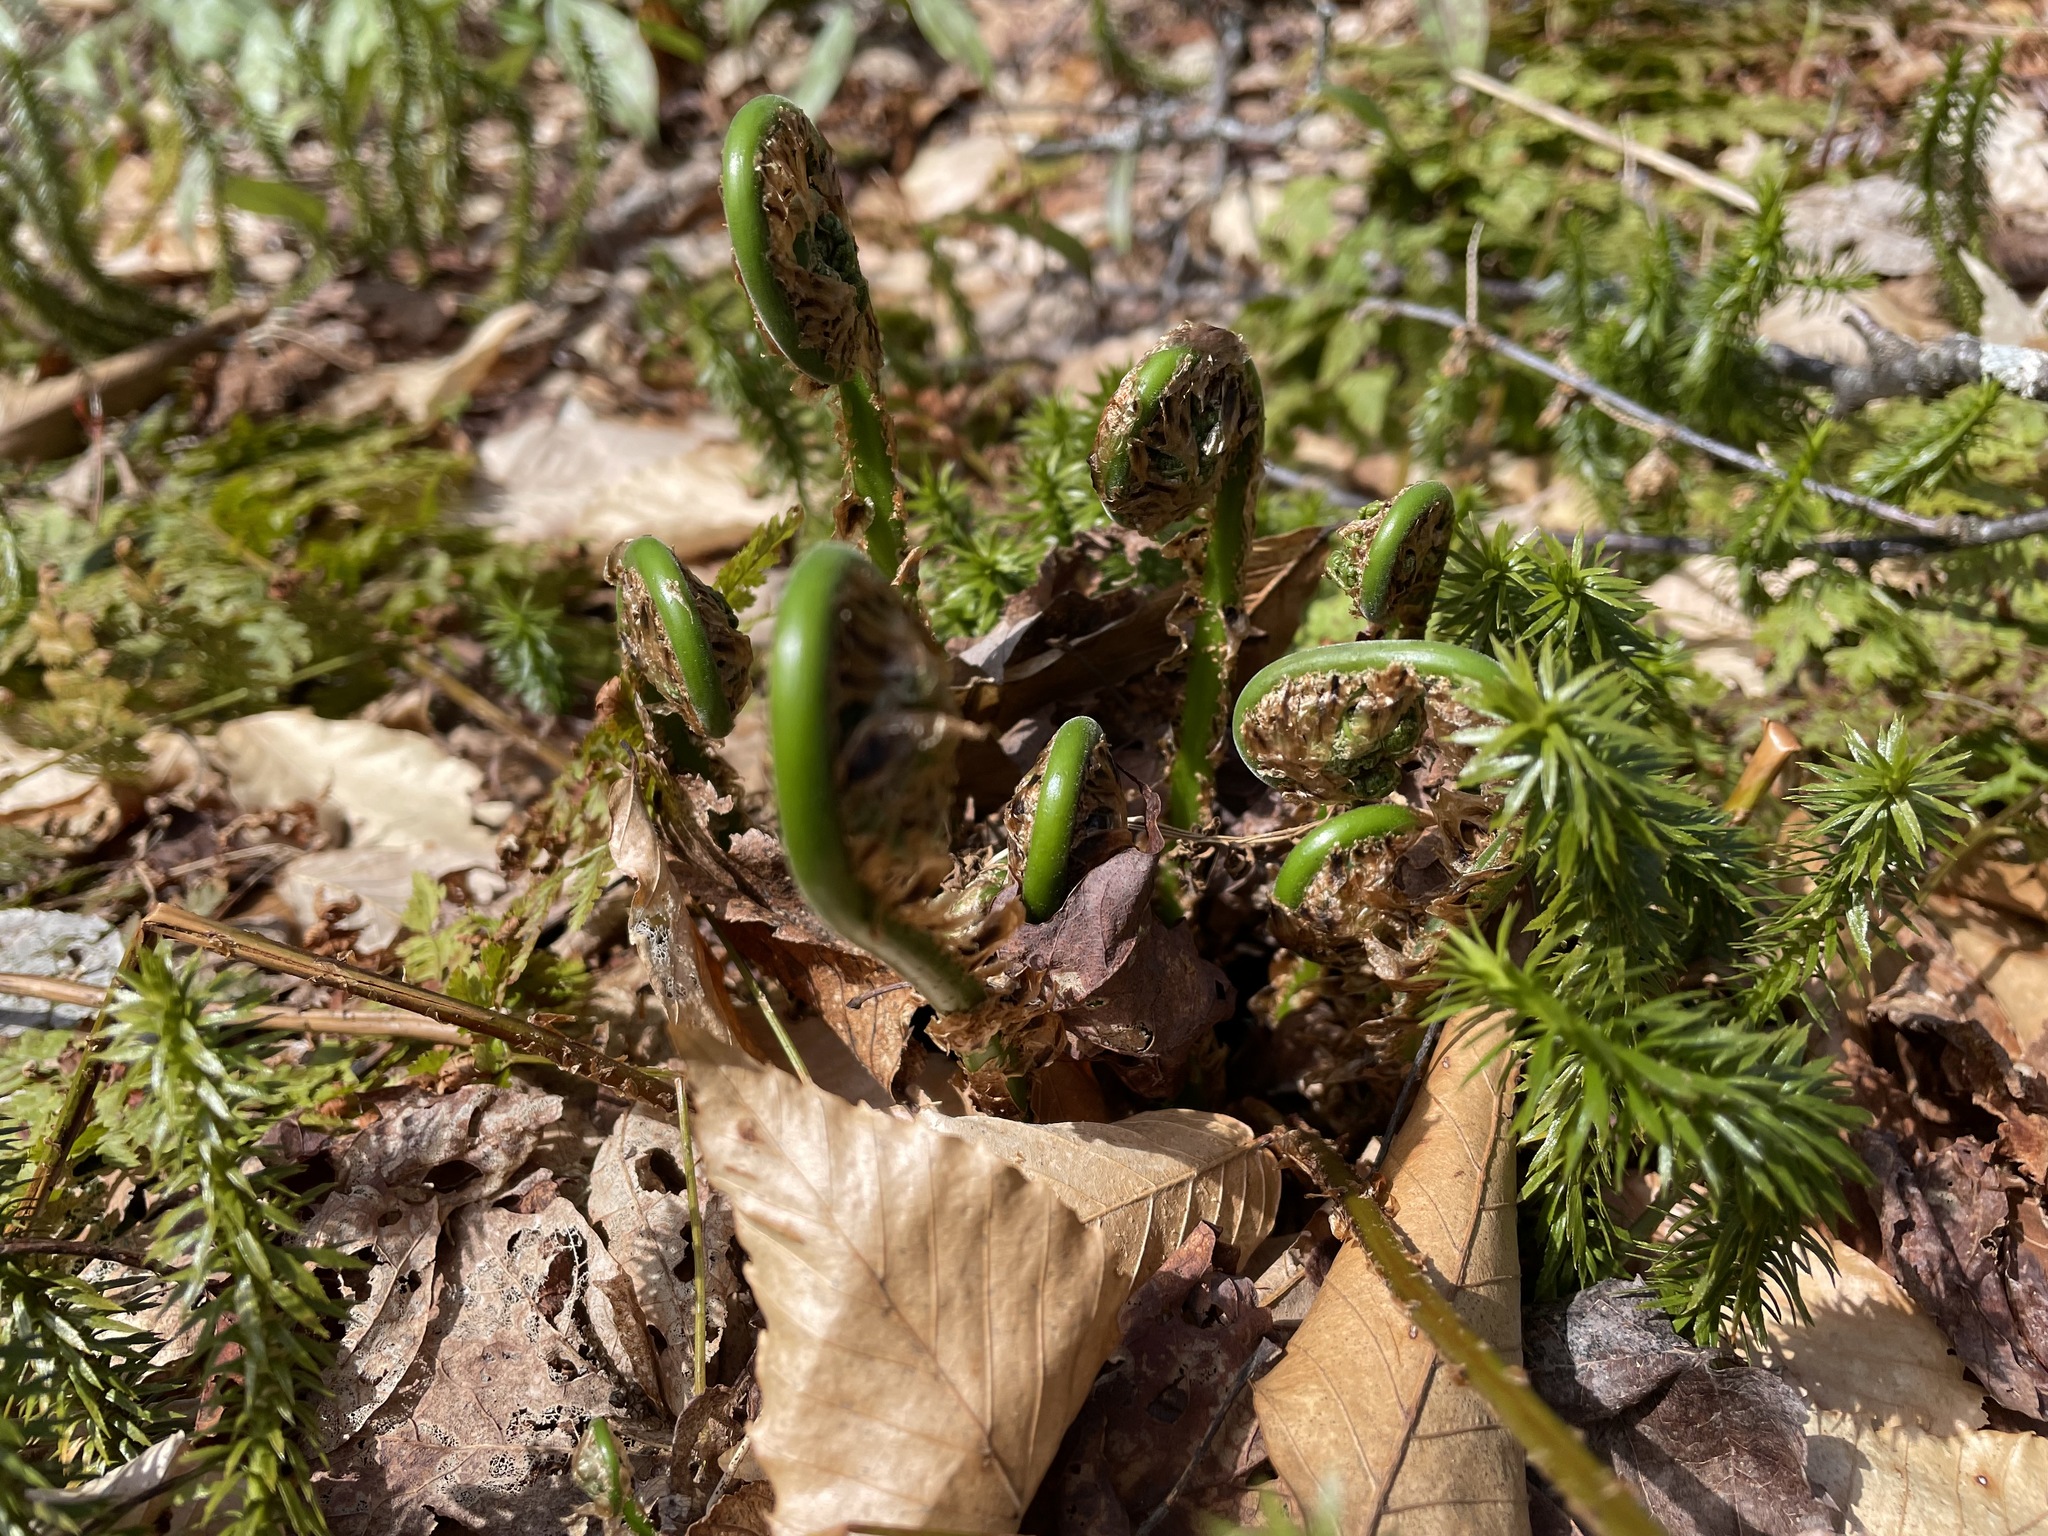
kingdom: Plantae
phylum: Tracheophyta
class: Polypodiopsida
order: Polypodiales
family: Onocleaceae
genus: Matteuccia
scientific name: Matteuccia struthiopteris
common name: Ostrich fern
